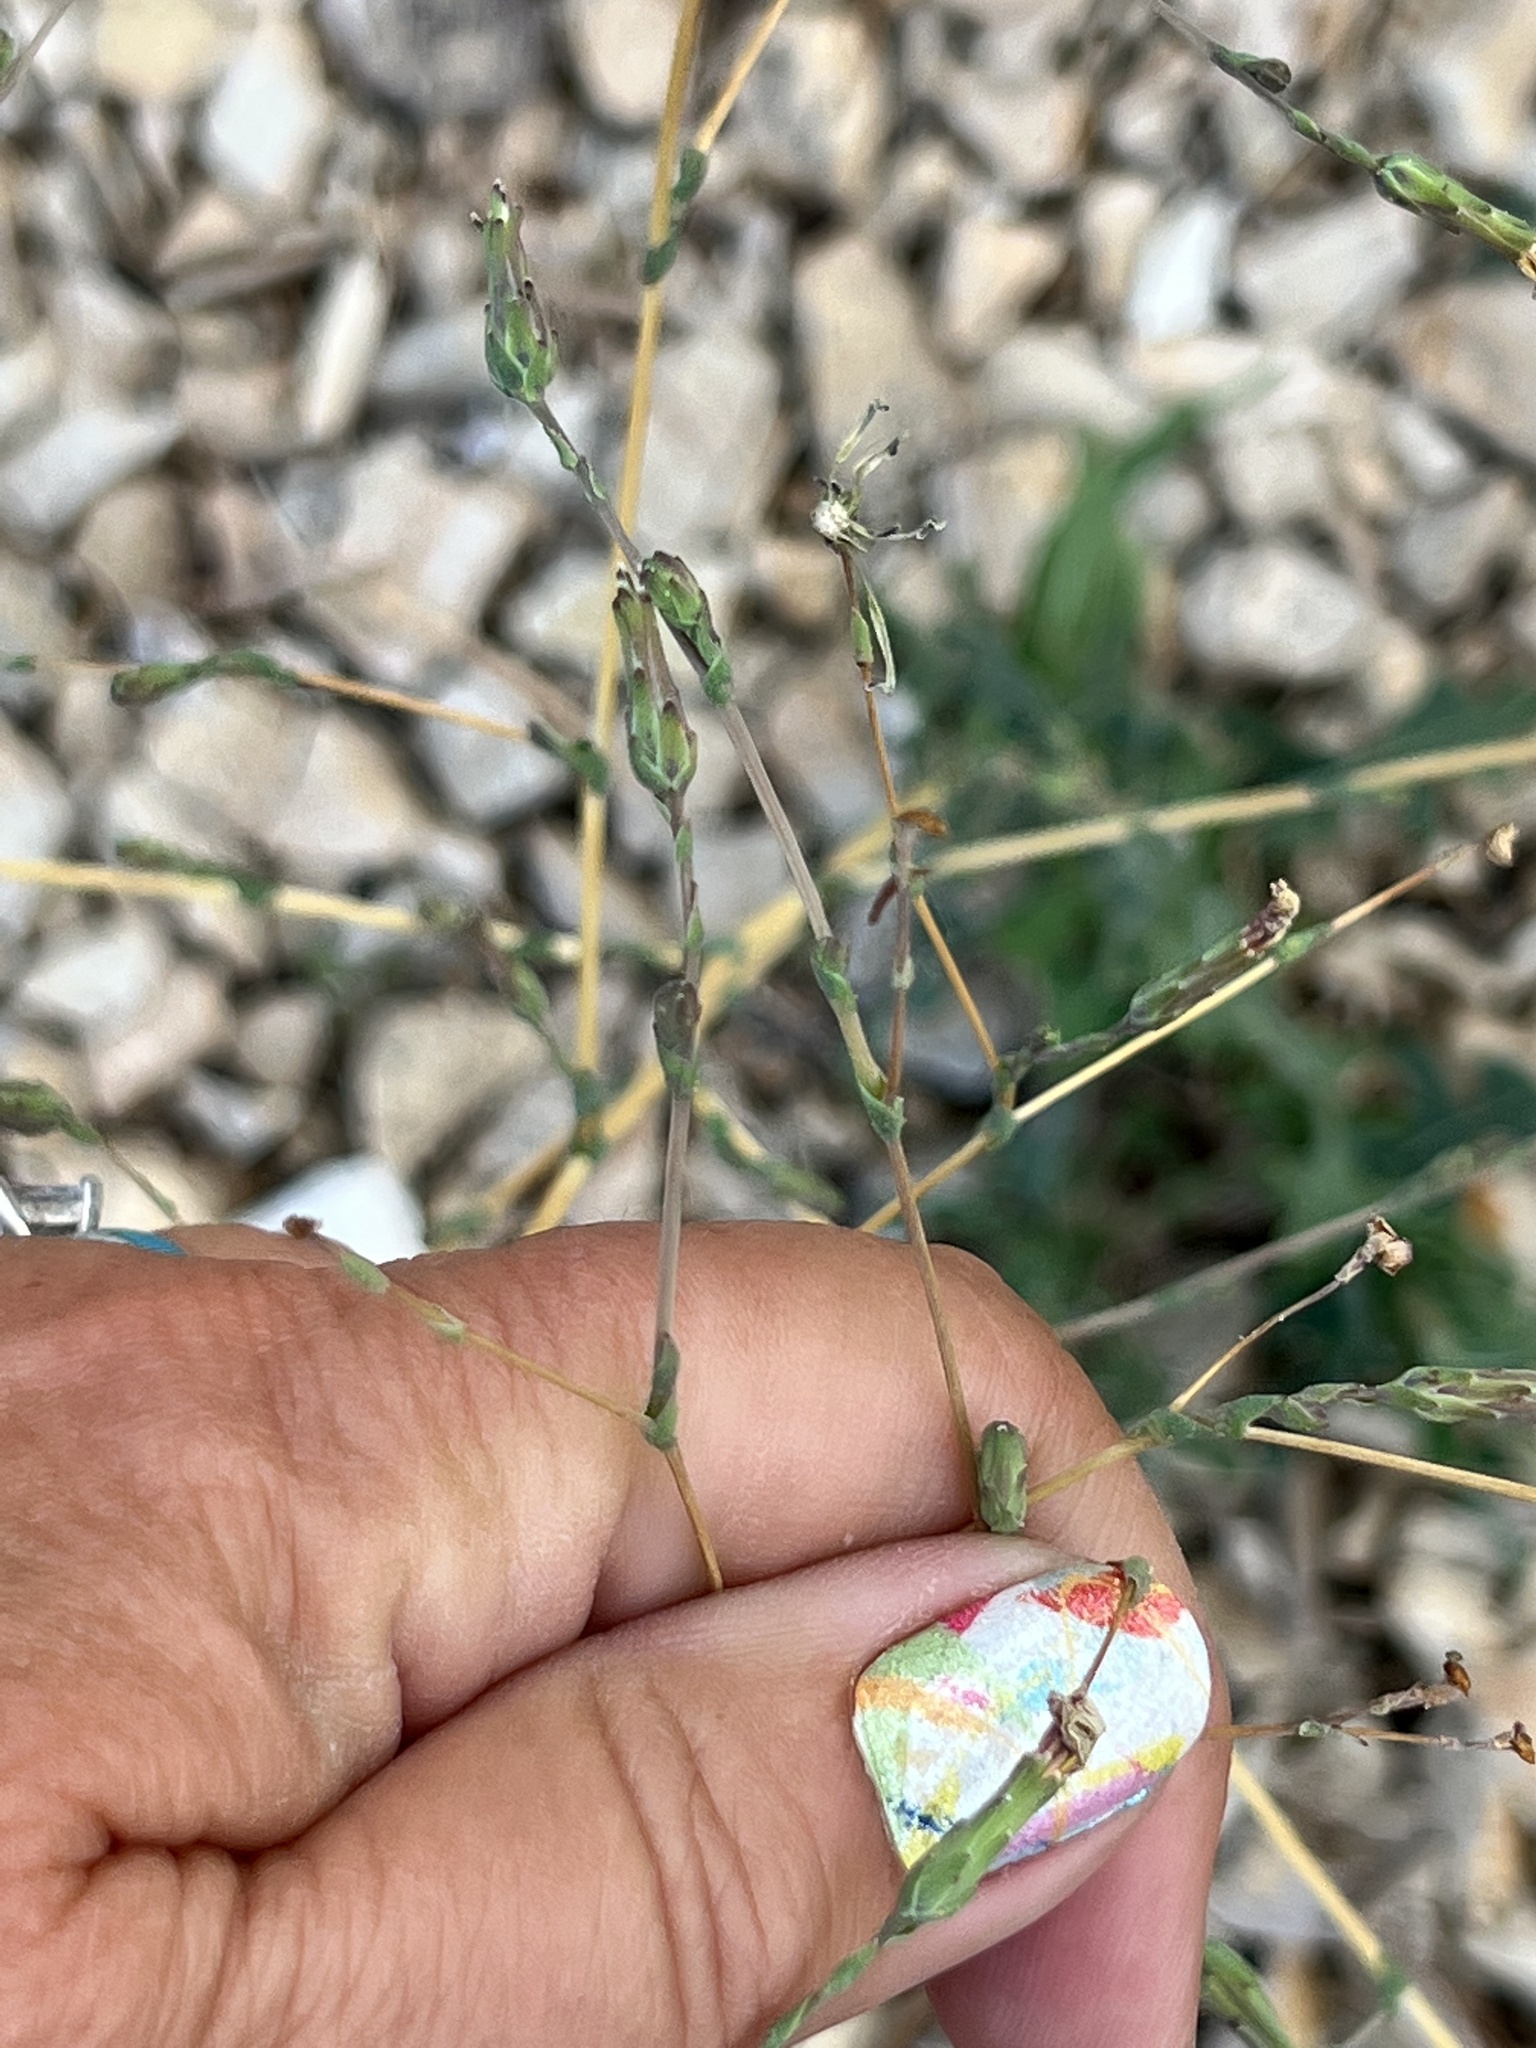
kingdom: Plantae
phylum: Tracheophyta
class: Magnoliopsida
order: Asterales
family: Asteraceae
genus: Lactuca
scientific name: Lactuca serriola
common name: Prickly lettuce
